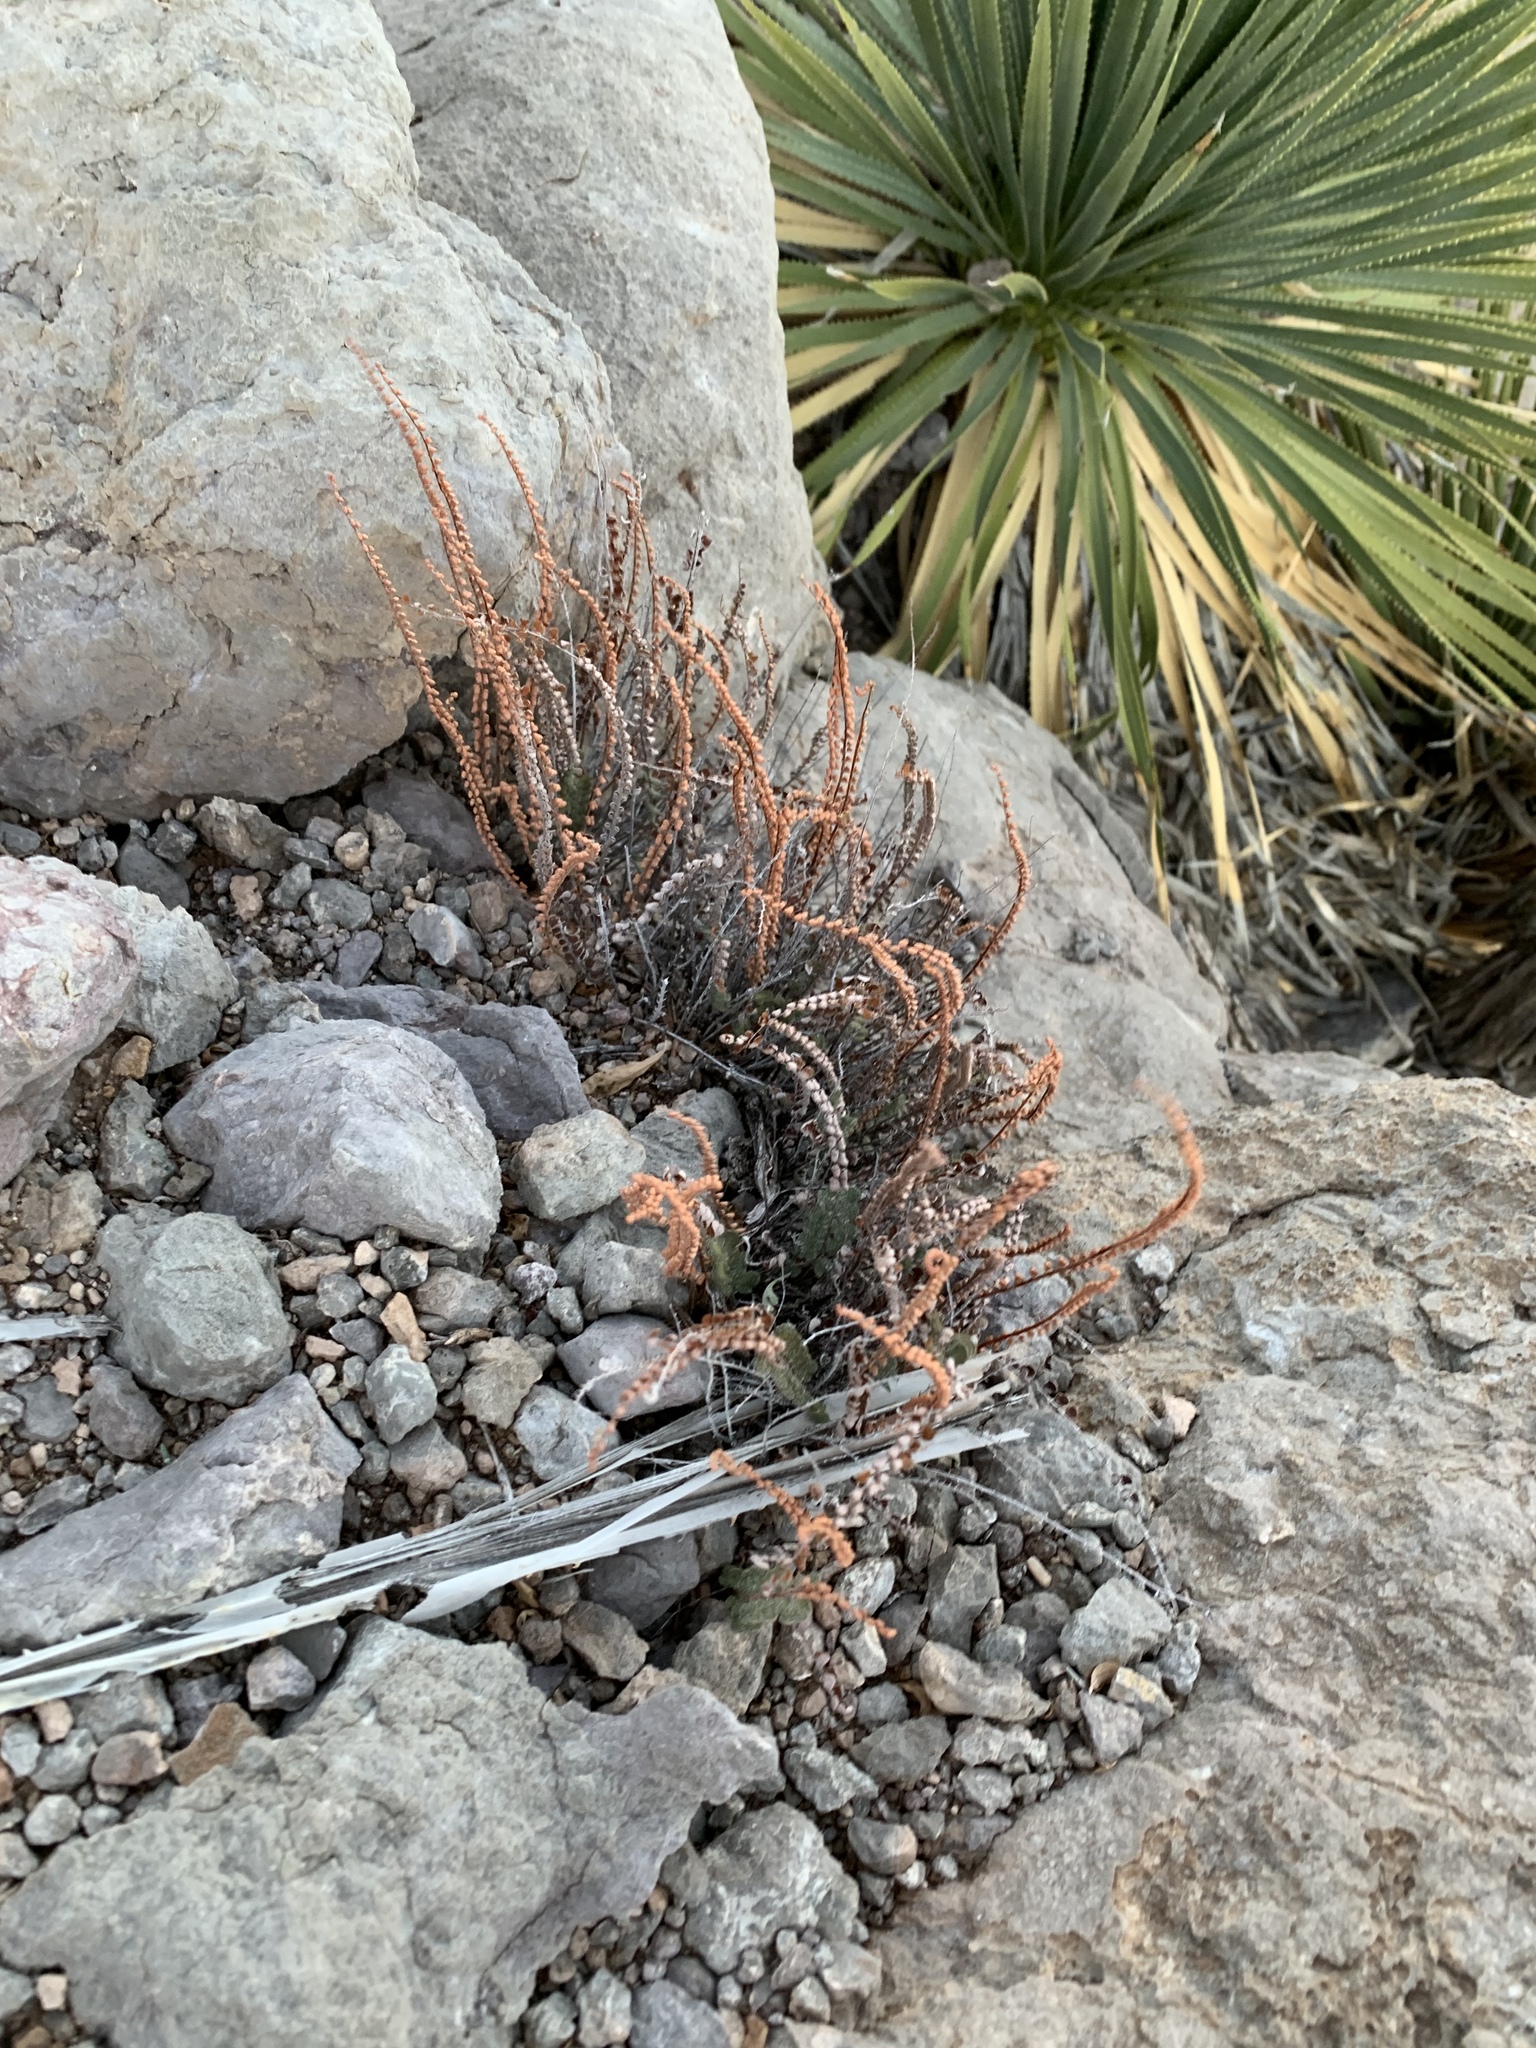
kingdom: Plantae
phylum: Tracheophyta
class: Polypodiopsida
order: Polypodiales
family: Pteridaceae
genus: Astrolepis
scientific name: Astrolepis cochisensis
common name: Scaly cloak fern
